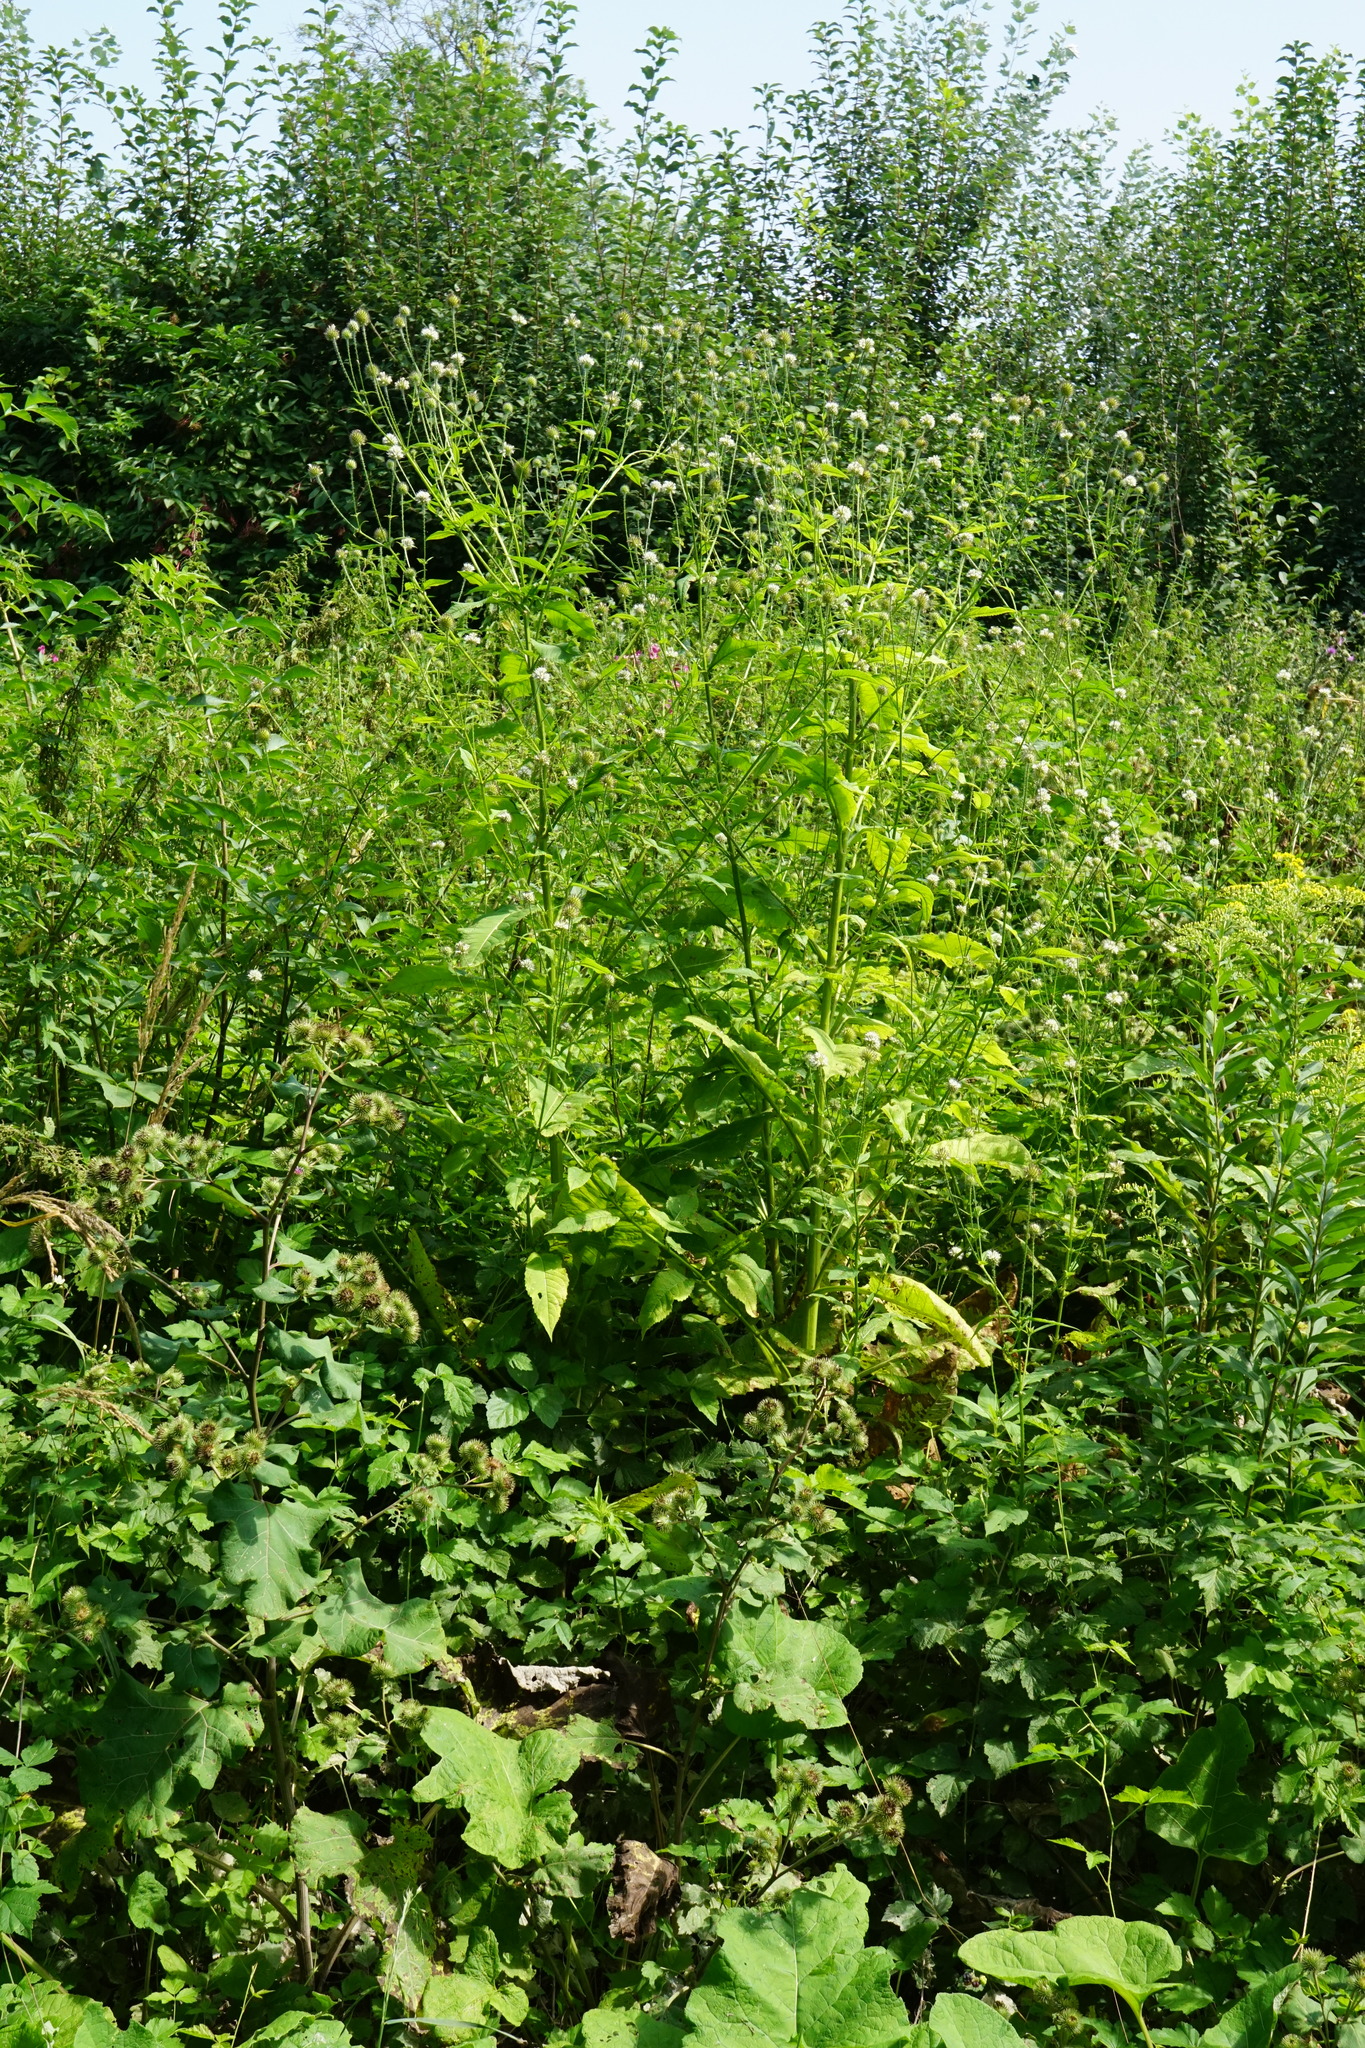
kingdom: Plantae
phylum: Tracheophyta
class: Magnoliopsida
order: Dipsacales
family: Caprifoliaceae
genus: Dipsacus
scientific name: Dipsacus pilosus
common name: Small teasel
